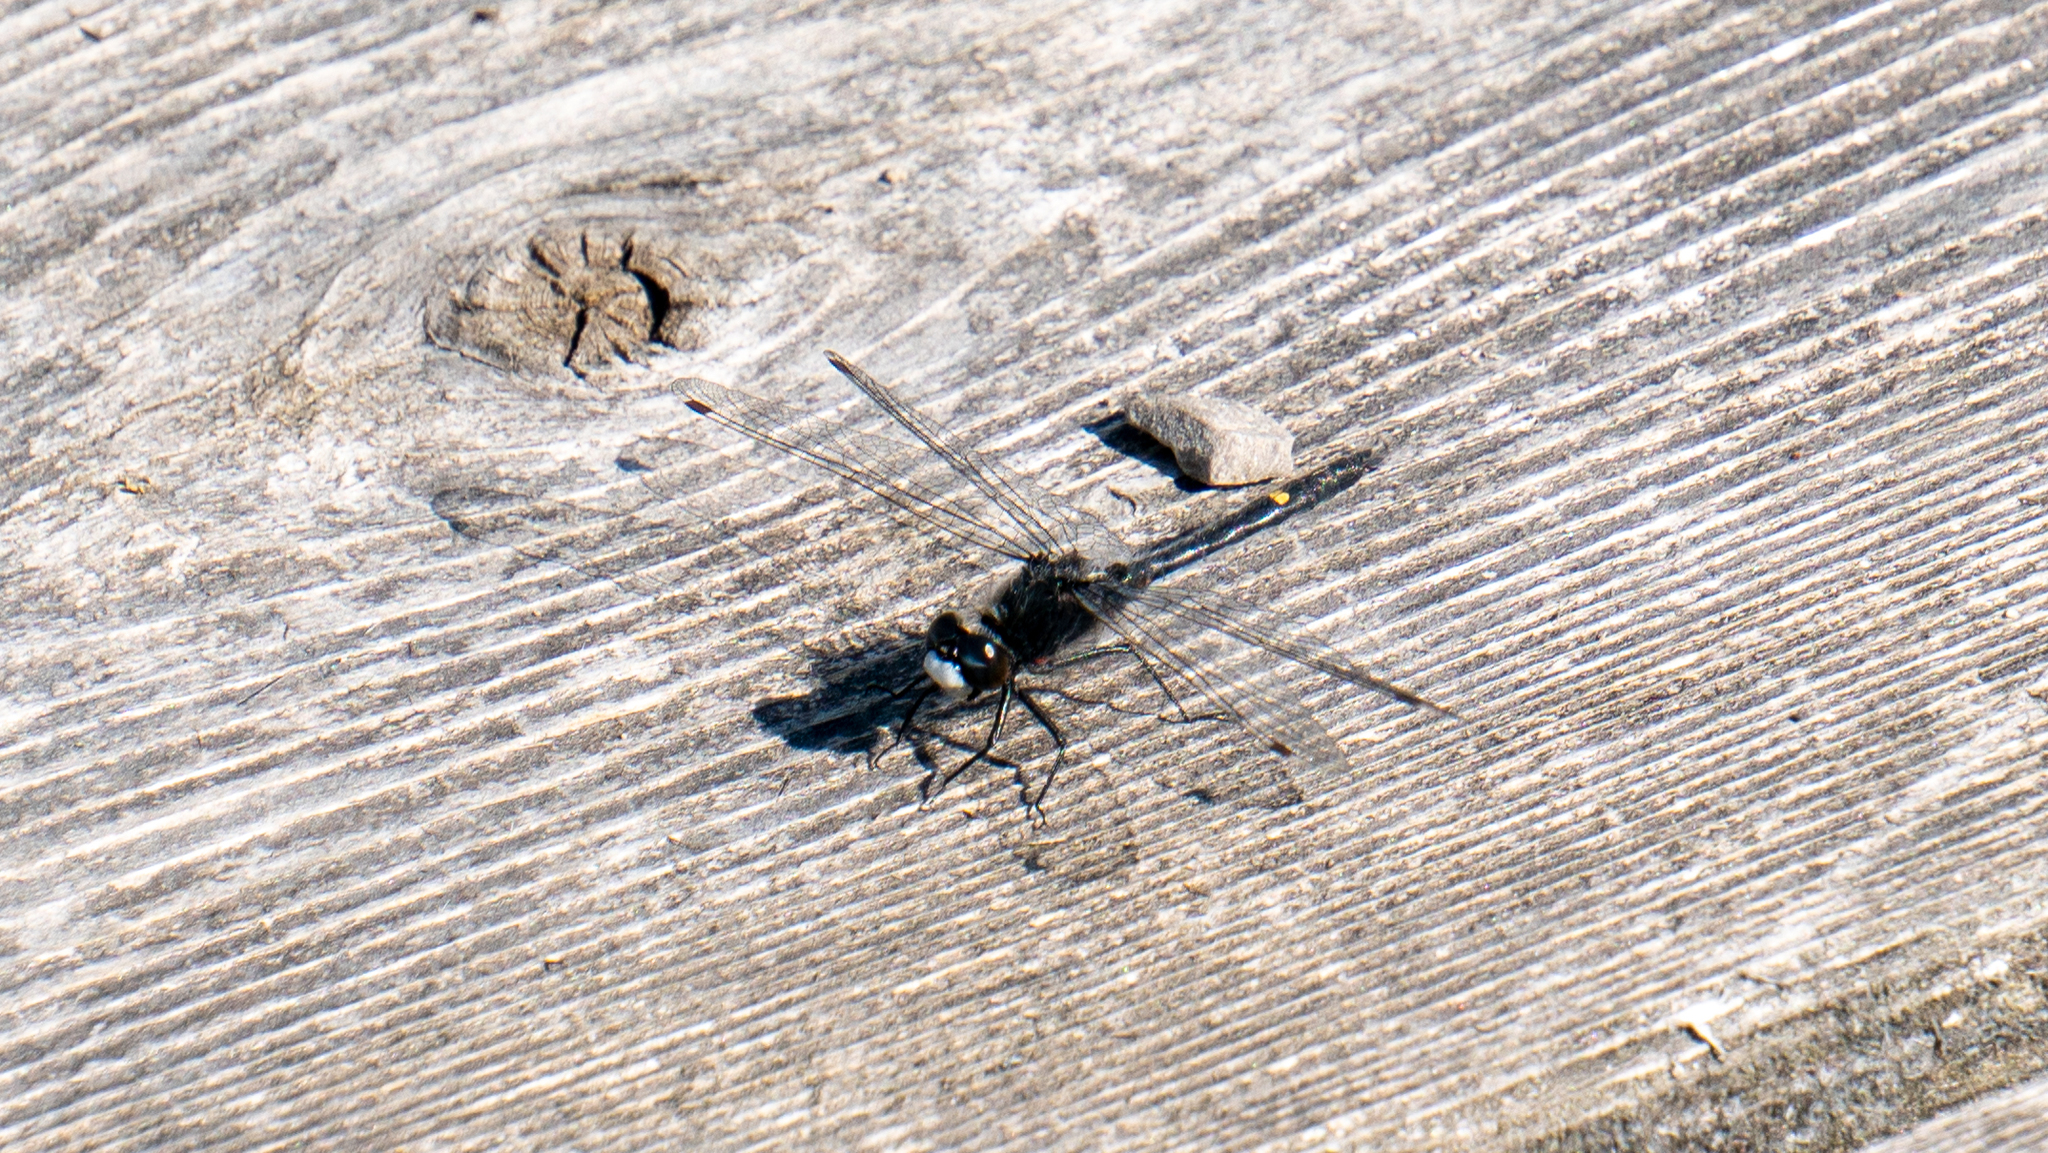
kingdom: Animalia
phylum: Arthropoda
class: Insecta
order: Odonata
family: Libellulidae
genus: Leucorrhinia
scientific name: Leucorrhinia intacta
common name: Dot-tailed whiteface
